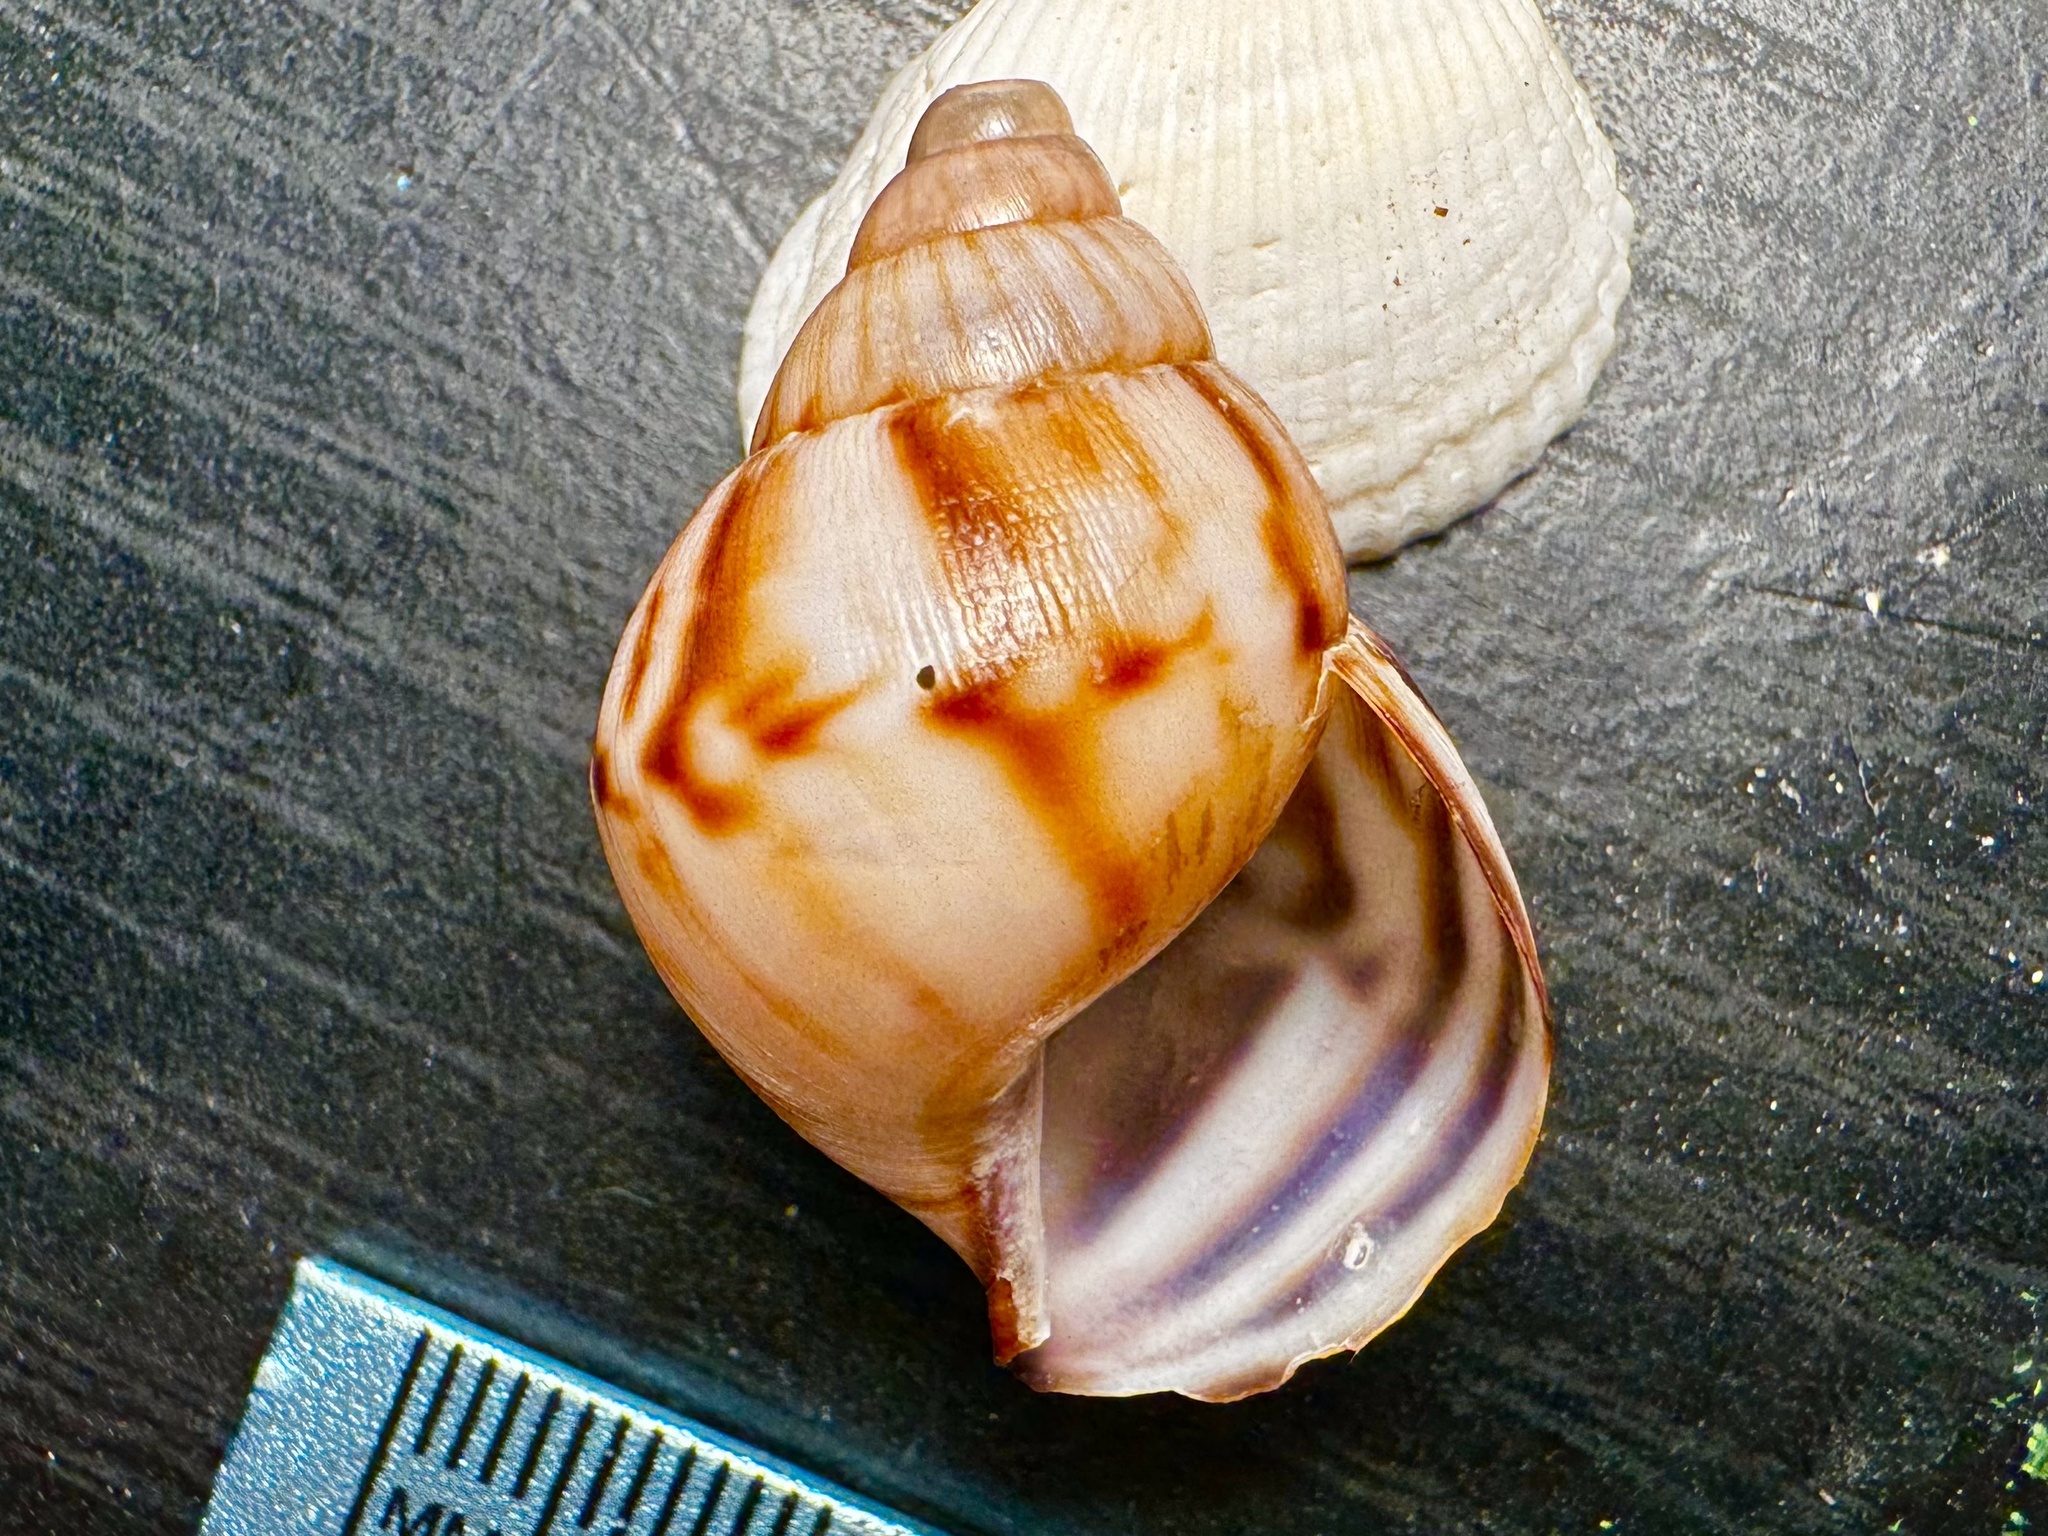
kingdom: Animalia
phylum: Mollusca
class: Gastropoda
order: Stylommatophora
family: Achatinidae
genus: Lissachatina
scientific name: Lissachatina fulica
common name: Giant african snail
